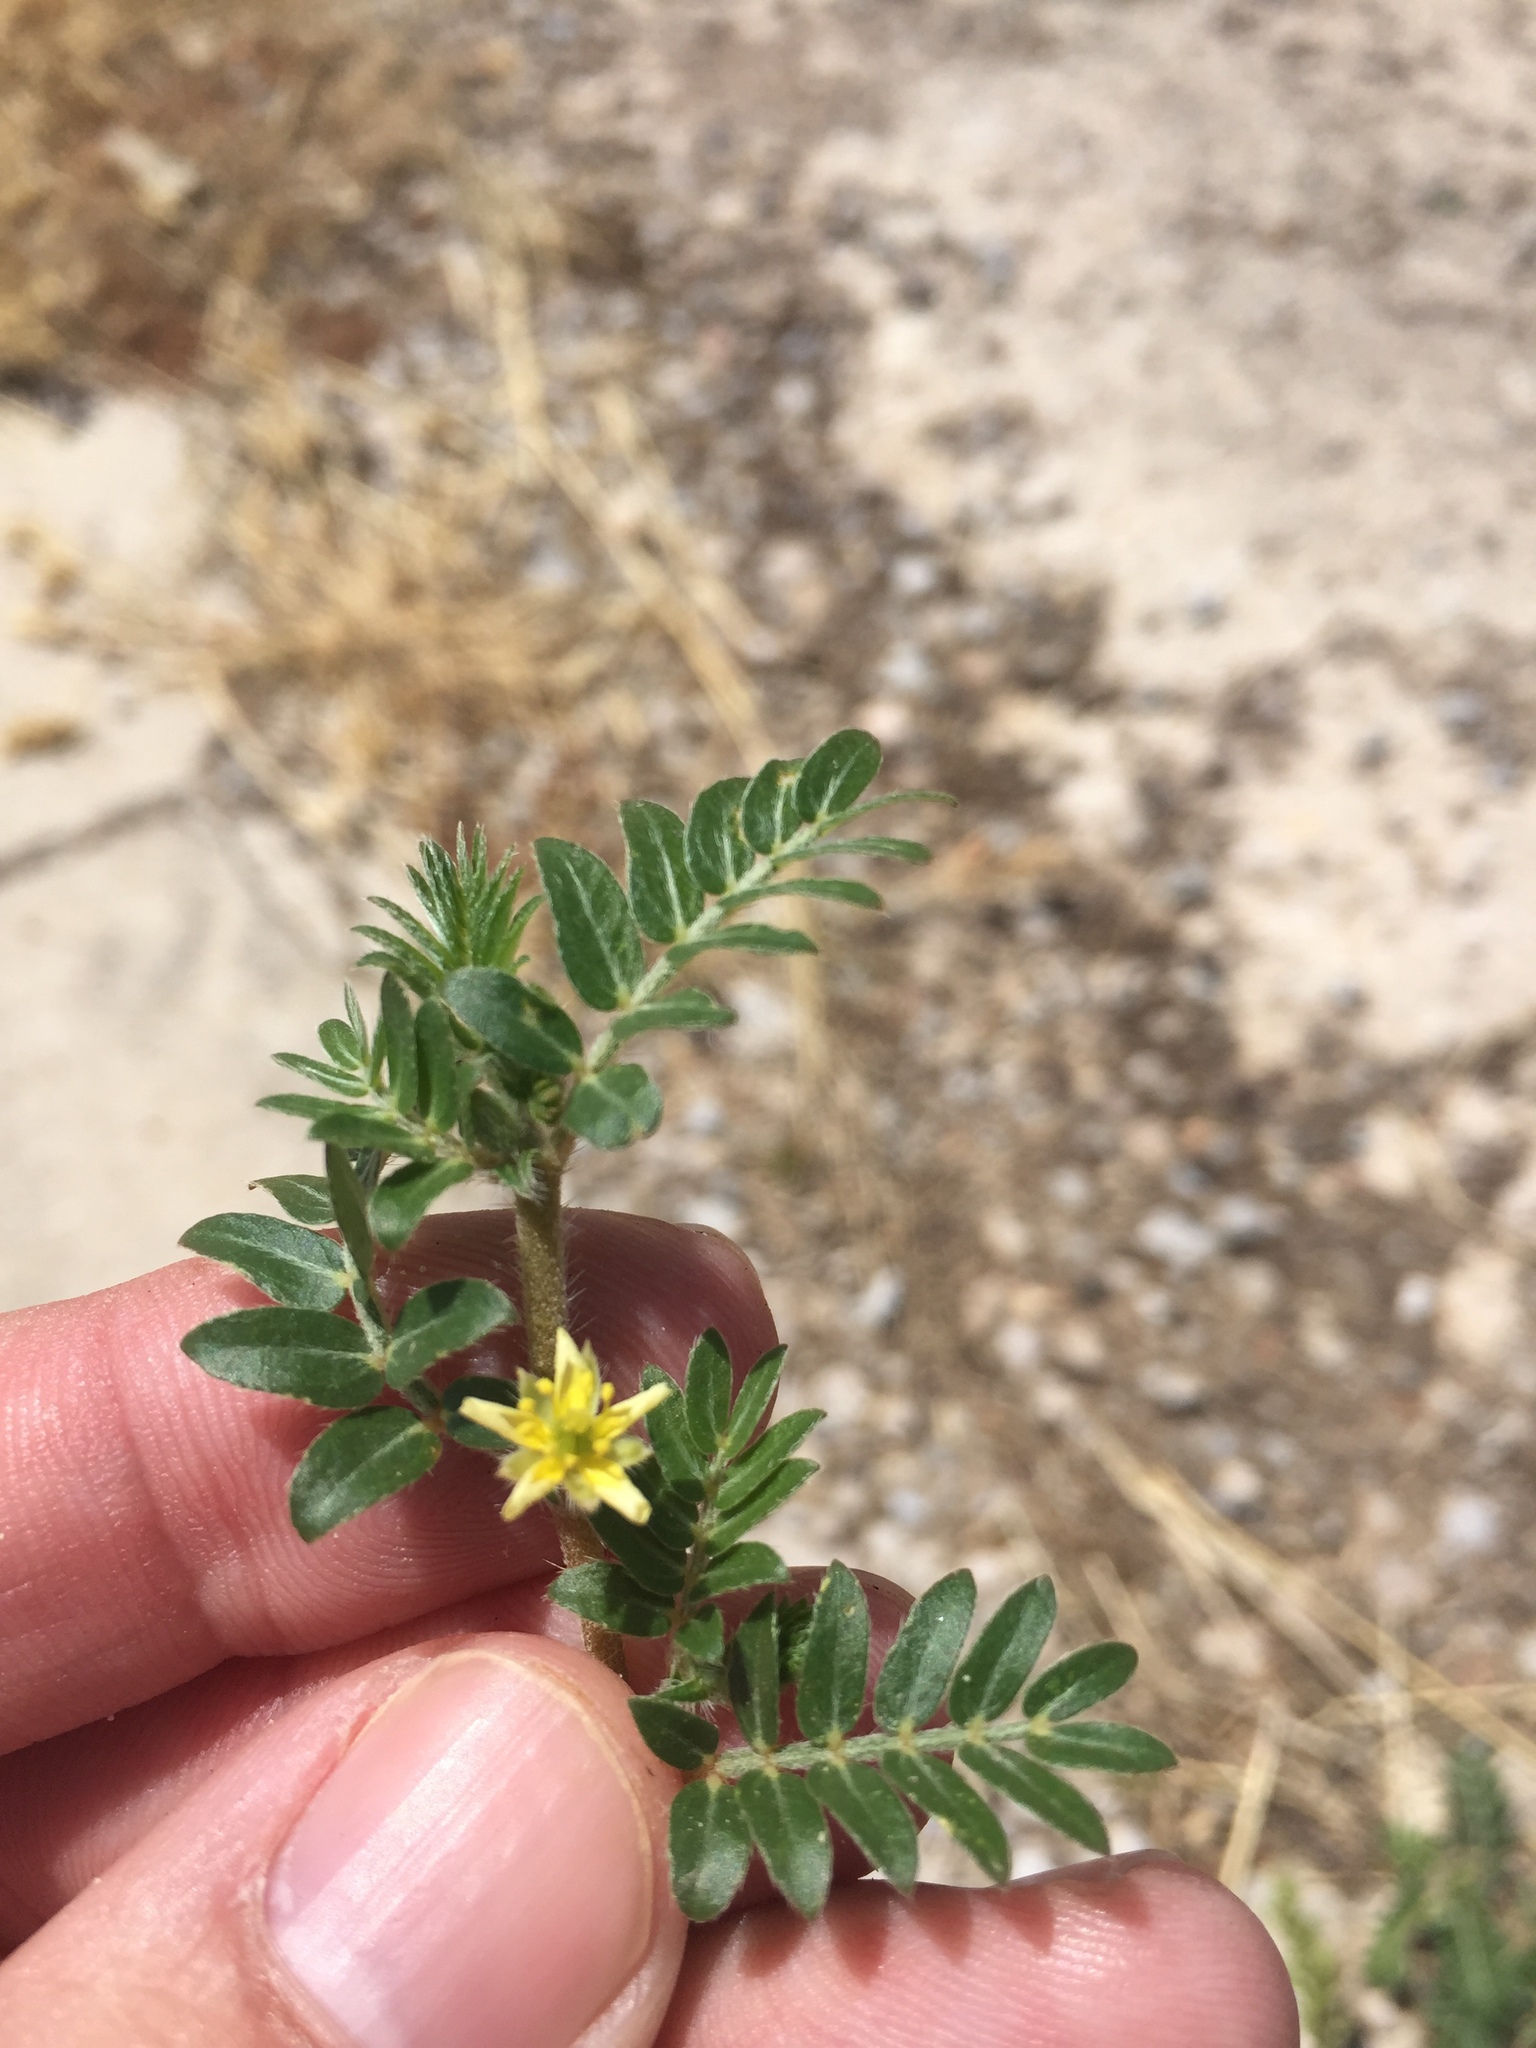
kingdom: Plantae
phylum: Tracheophyta
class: Magnoliopsida
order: Zygophyllales
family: Zygophyllaceae
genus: Tribulus
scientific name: Tribulus terrestris
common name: Puncturevine
